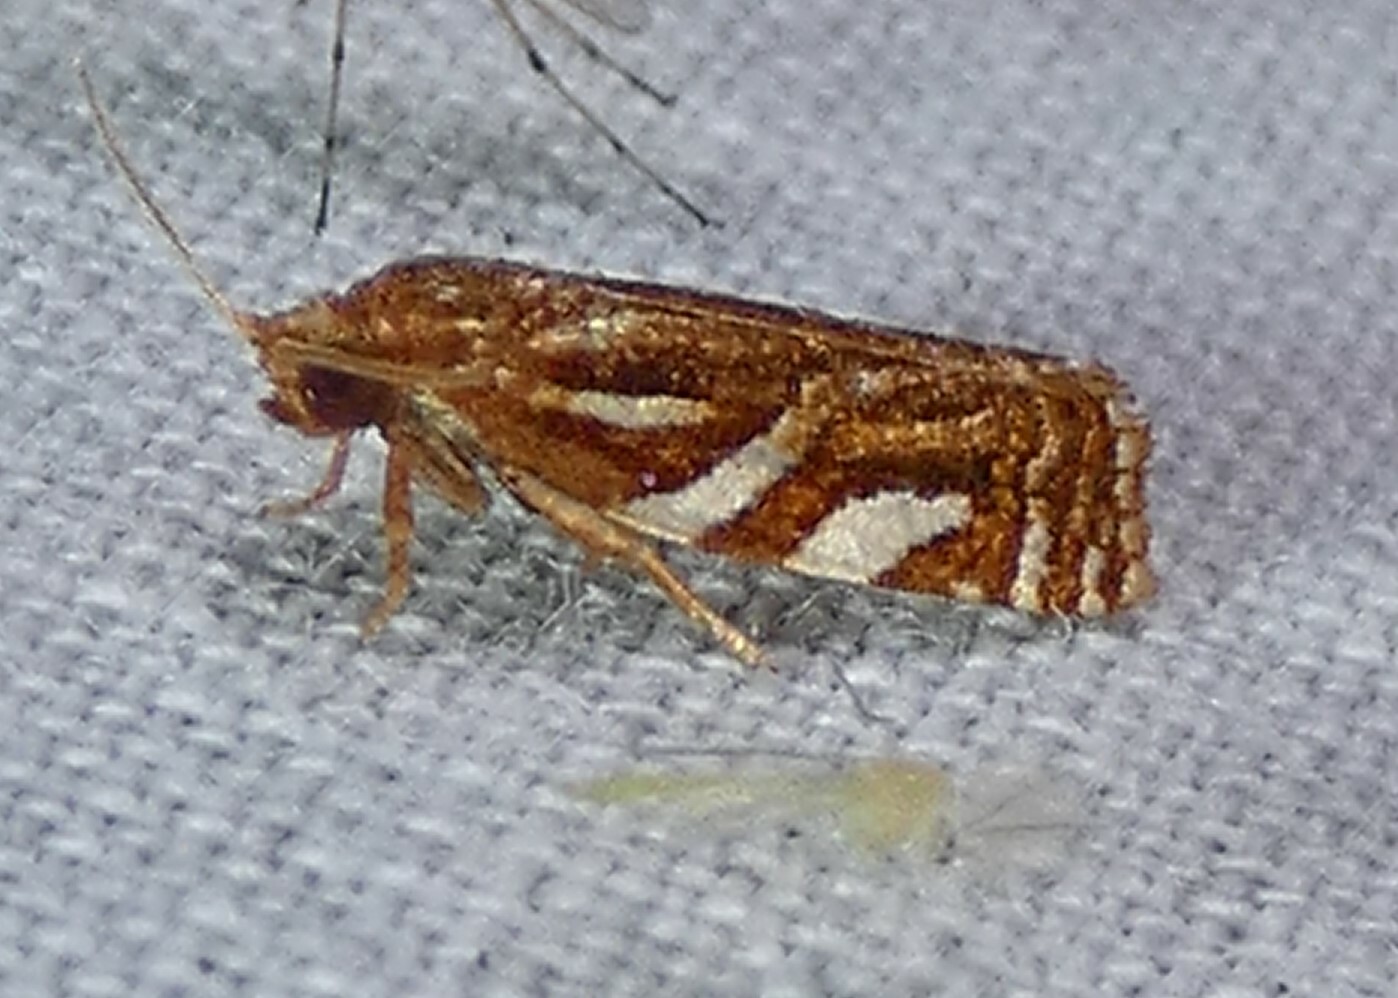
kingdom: Animalia
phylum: Arthropoda
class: Insecta
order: Lepidoptera
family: Tortricidae
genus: Choristoneura
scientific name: Choristoneura argentifasciata
